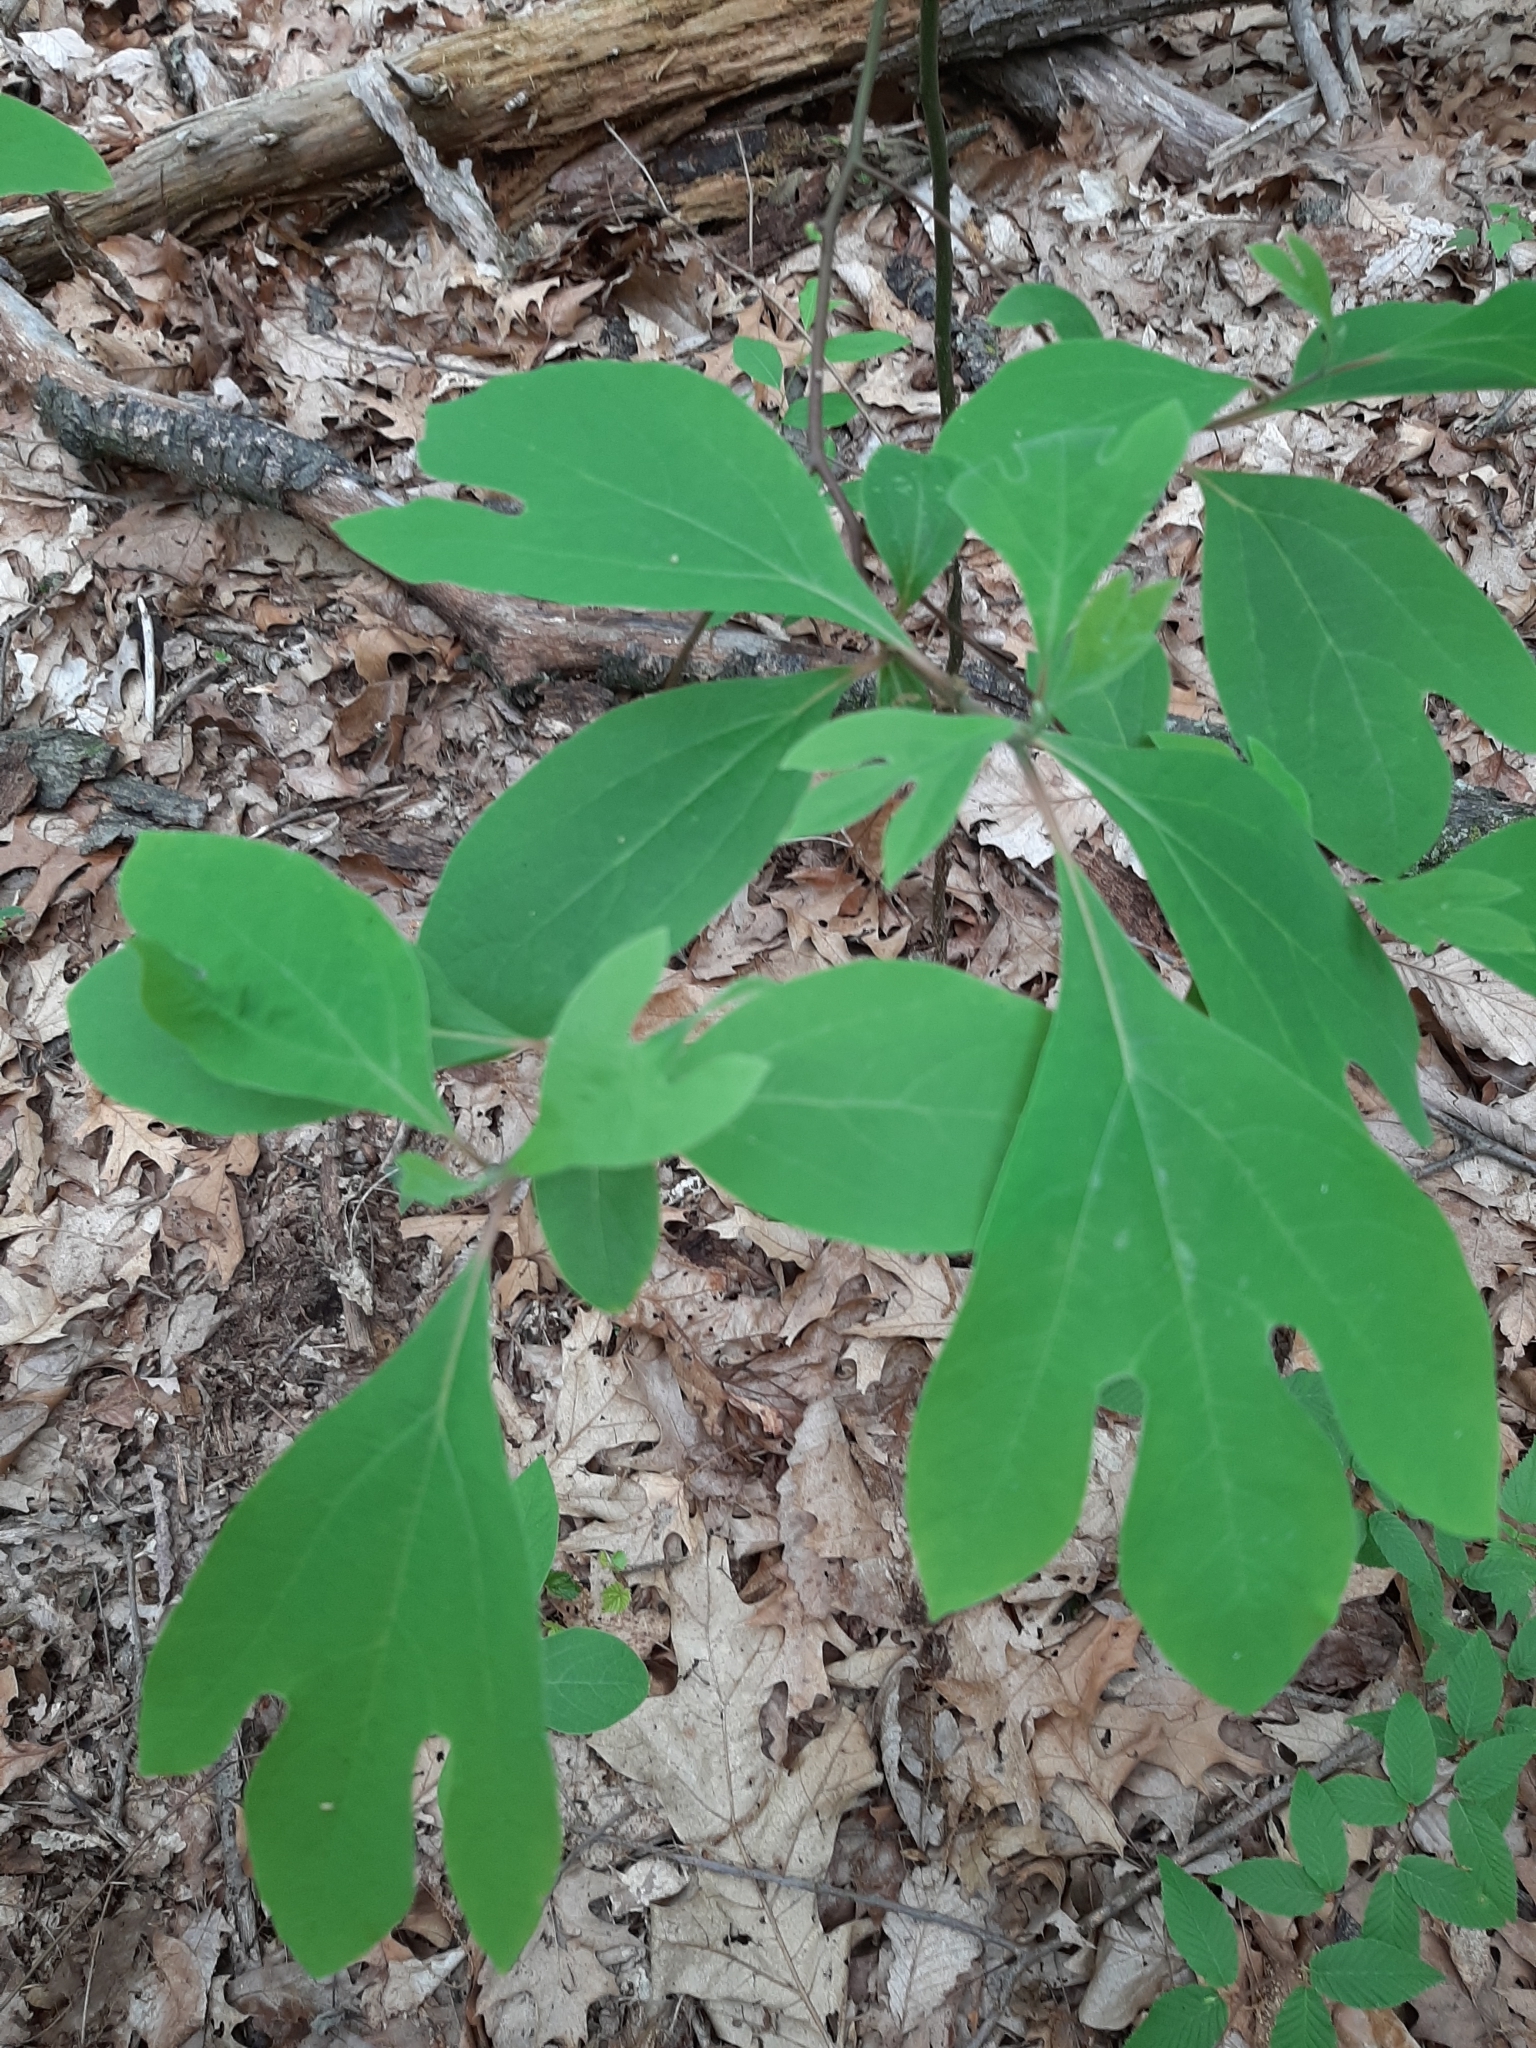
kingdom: Plantae
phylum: Tracheophyta
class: Magnoliopsida
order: Laurales
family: Lauraceae
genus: Sassafras
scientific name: Sassafras albidum
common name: Sassafras
